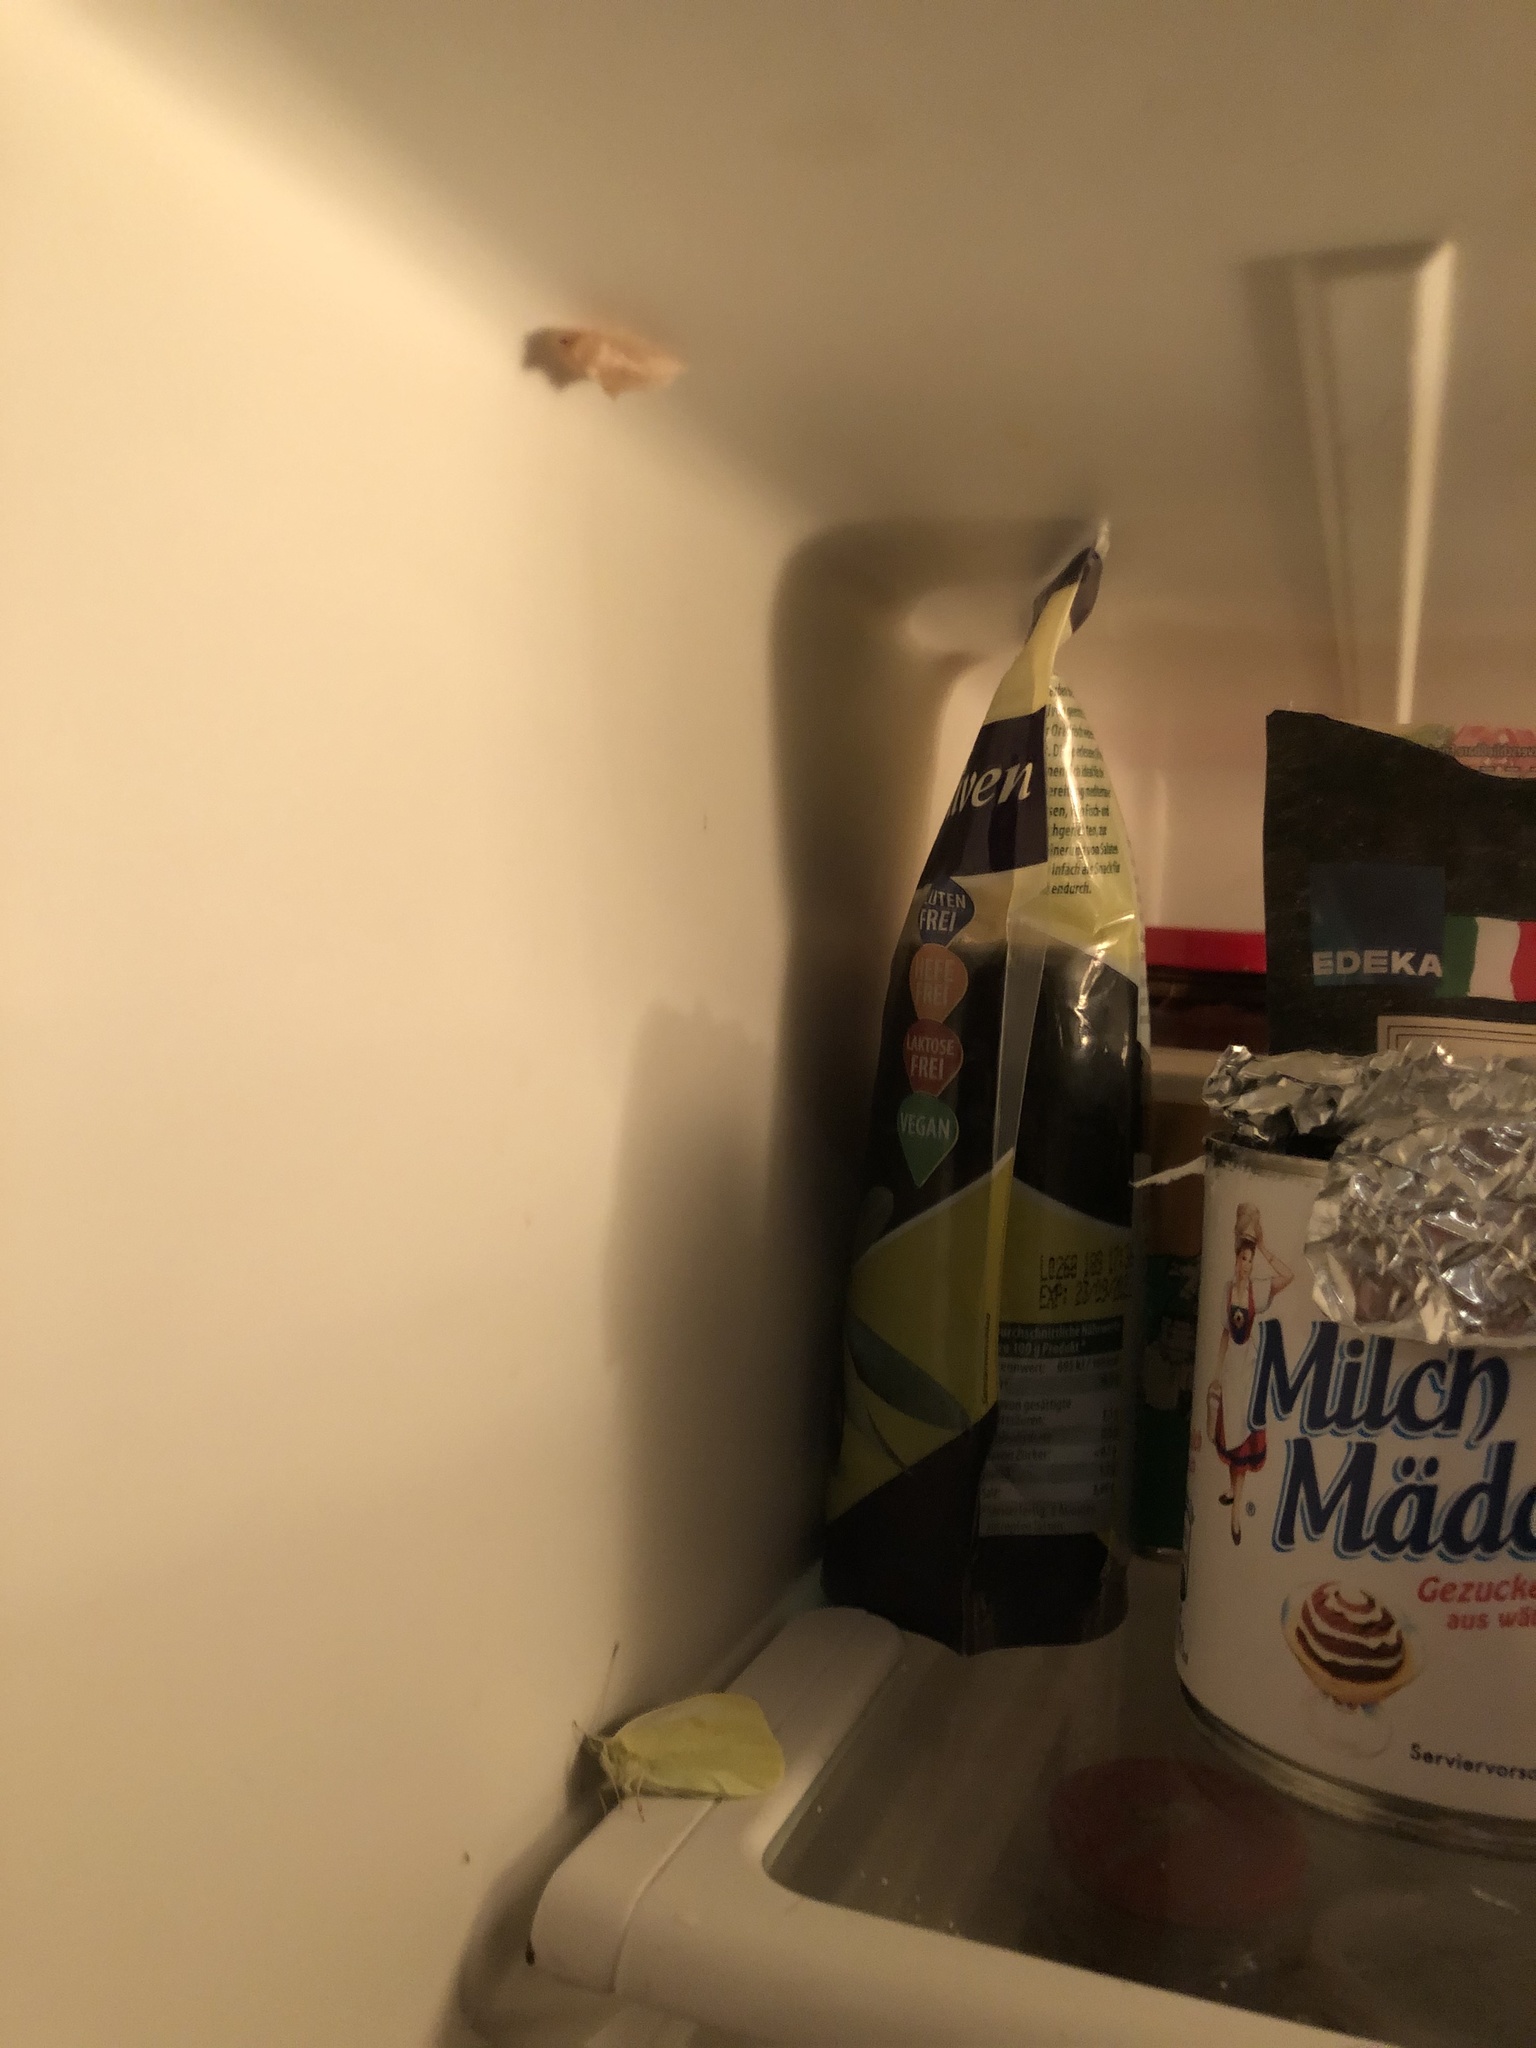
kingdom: Animalia
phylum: Arthropoda
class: Insecta
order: Lepidoptera
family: Pieridae
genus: Pieris
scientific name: Pieris rapae
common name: Small white
